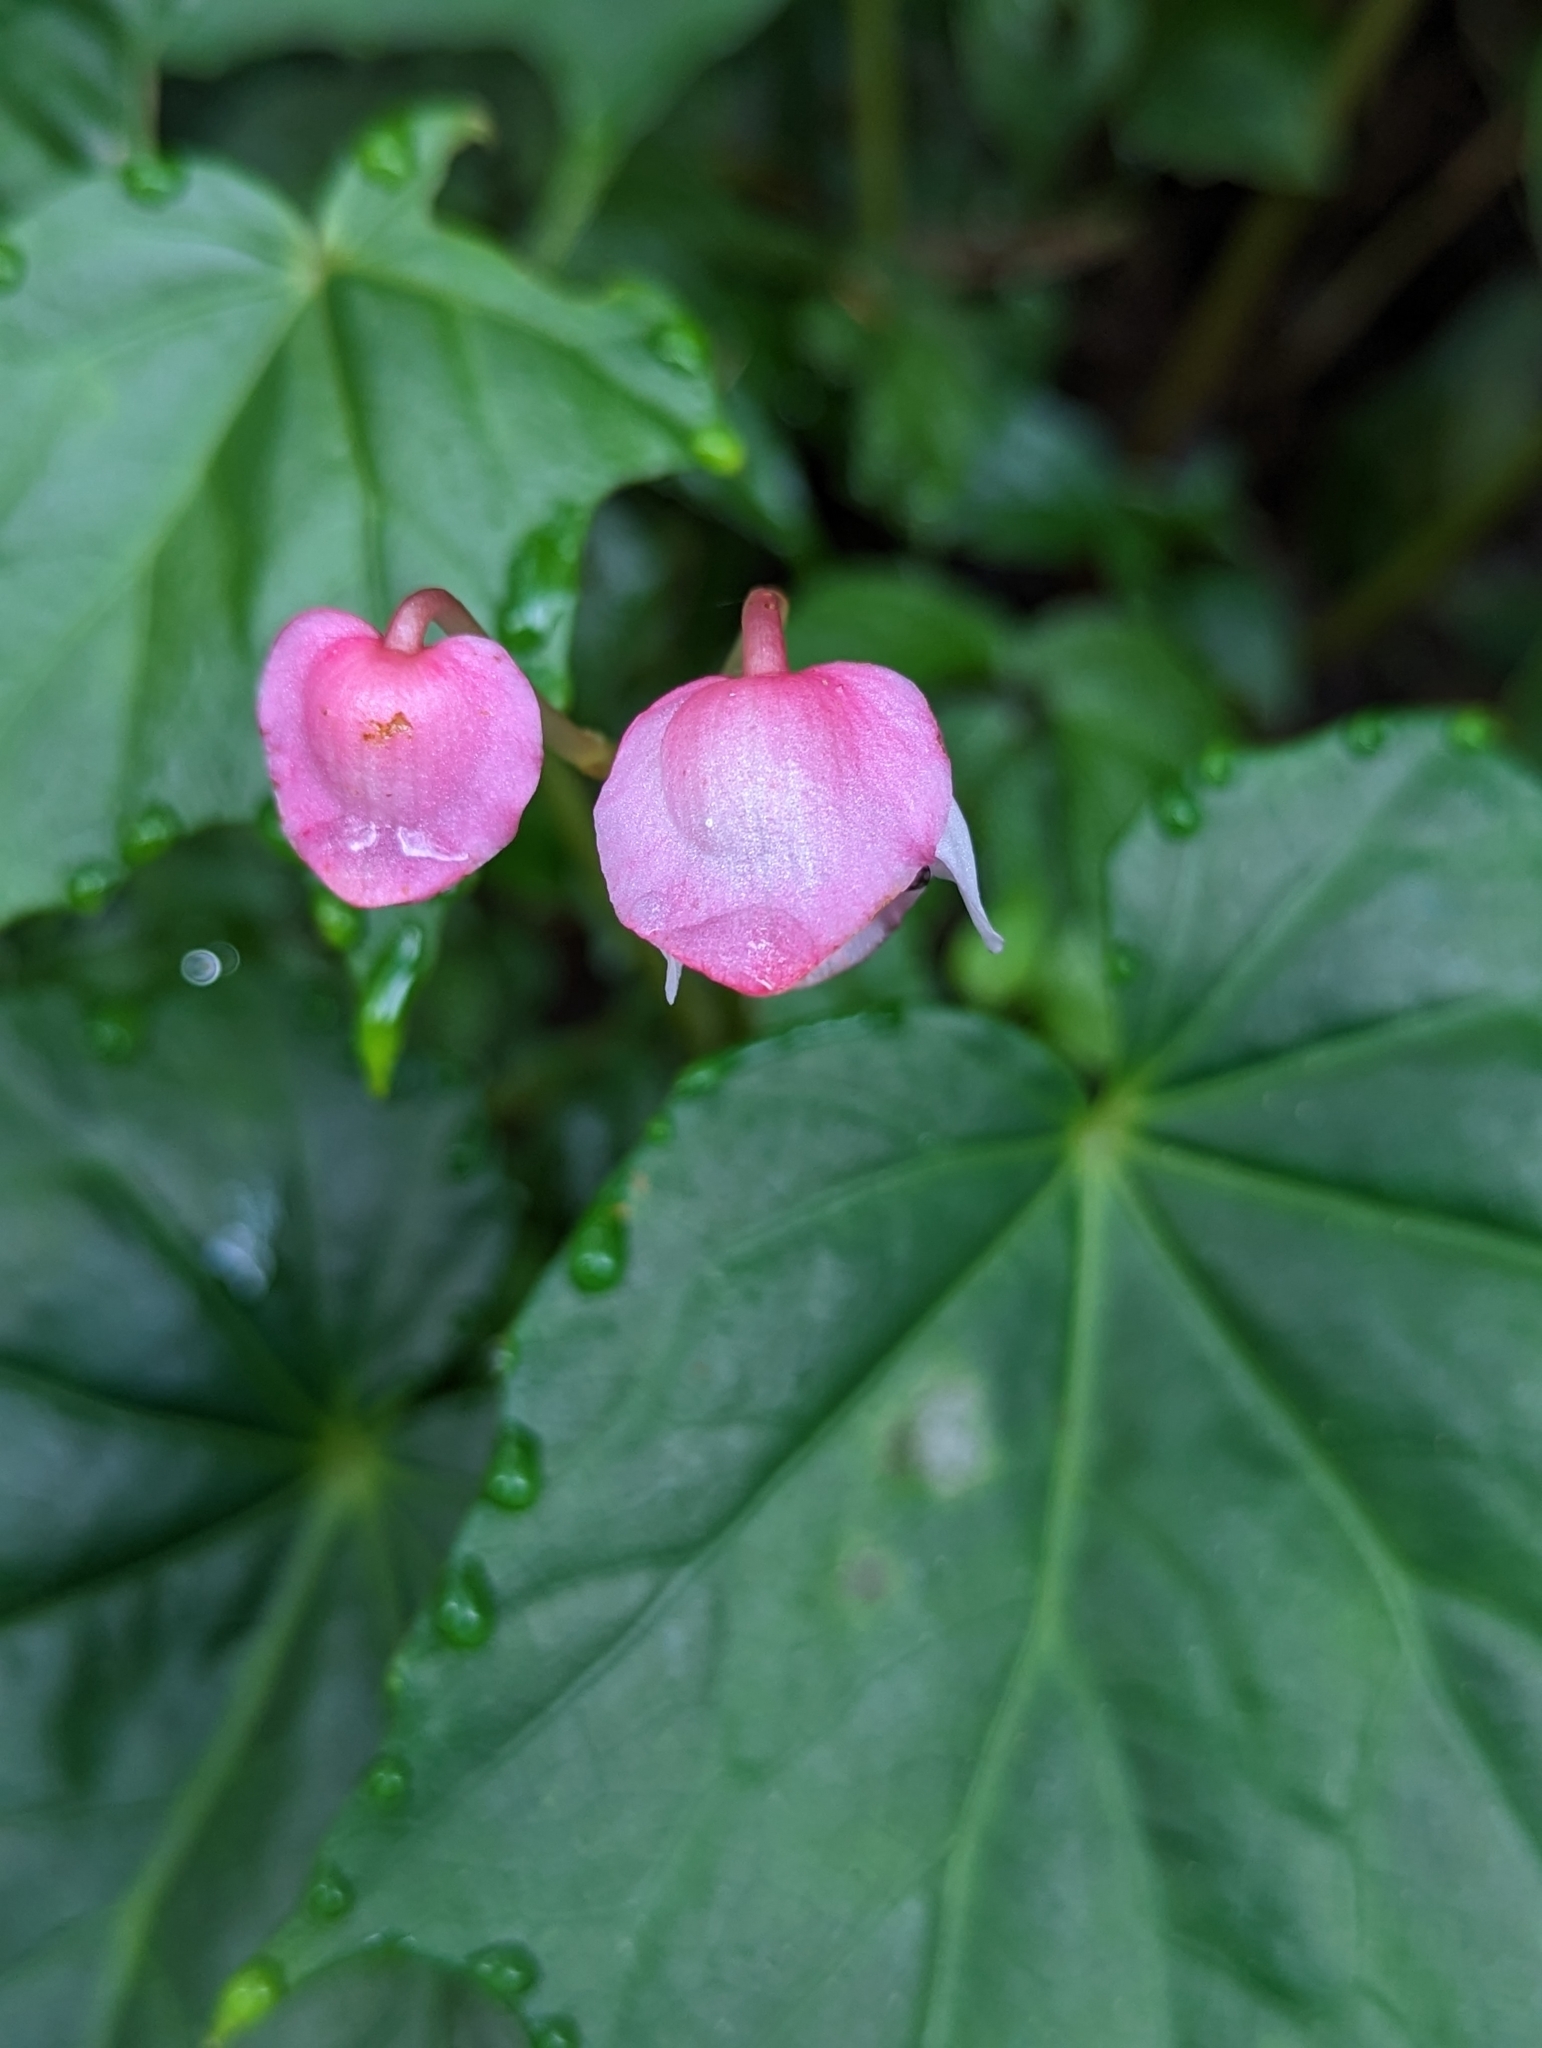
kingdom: Plantae
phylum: Tracheophyta
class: Magnoliopsida
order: Cucurbitales
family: Begoniaceae
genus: Begonia
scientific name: Begonia formosana
